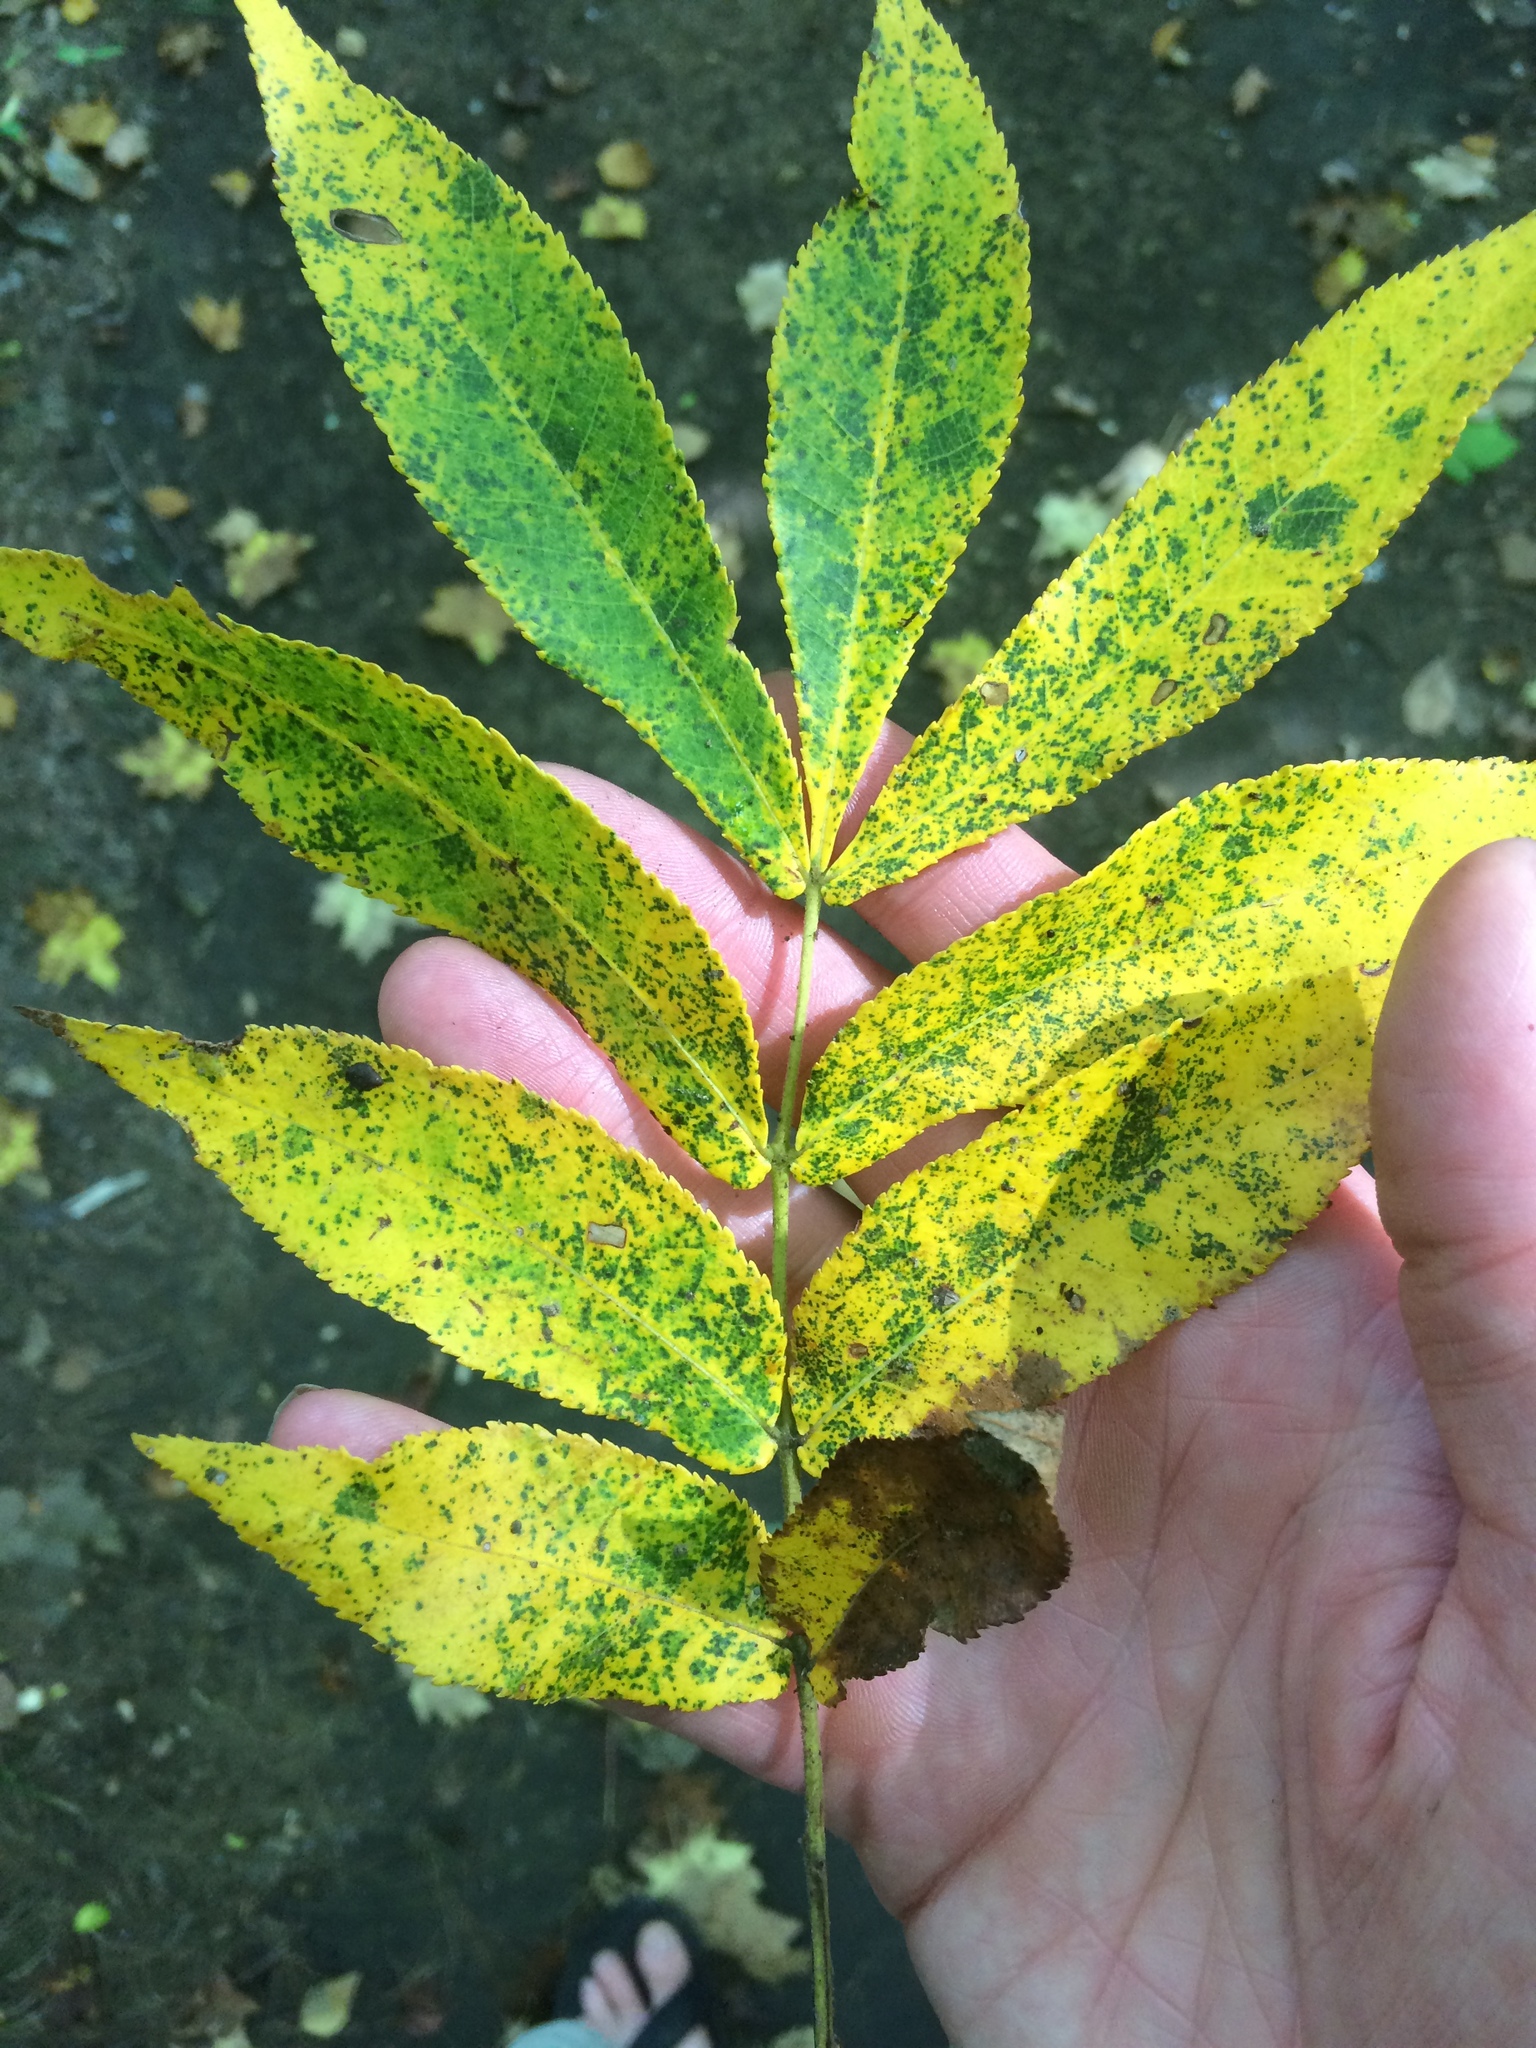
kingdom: Plantae
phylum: Tracheophyta
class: Magnoliopsida
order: Fagales
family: Juglandaceae
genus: Carya
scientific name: Carya cordiformis
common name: Bitternut hickory
